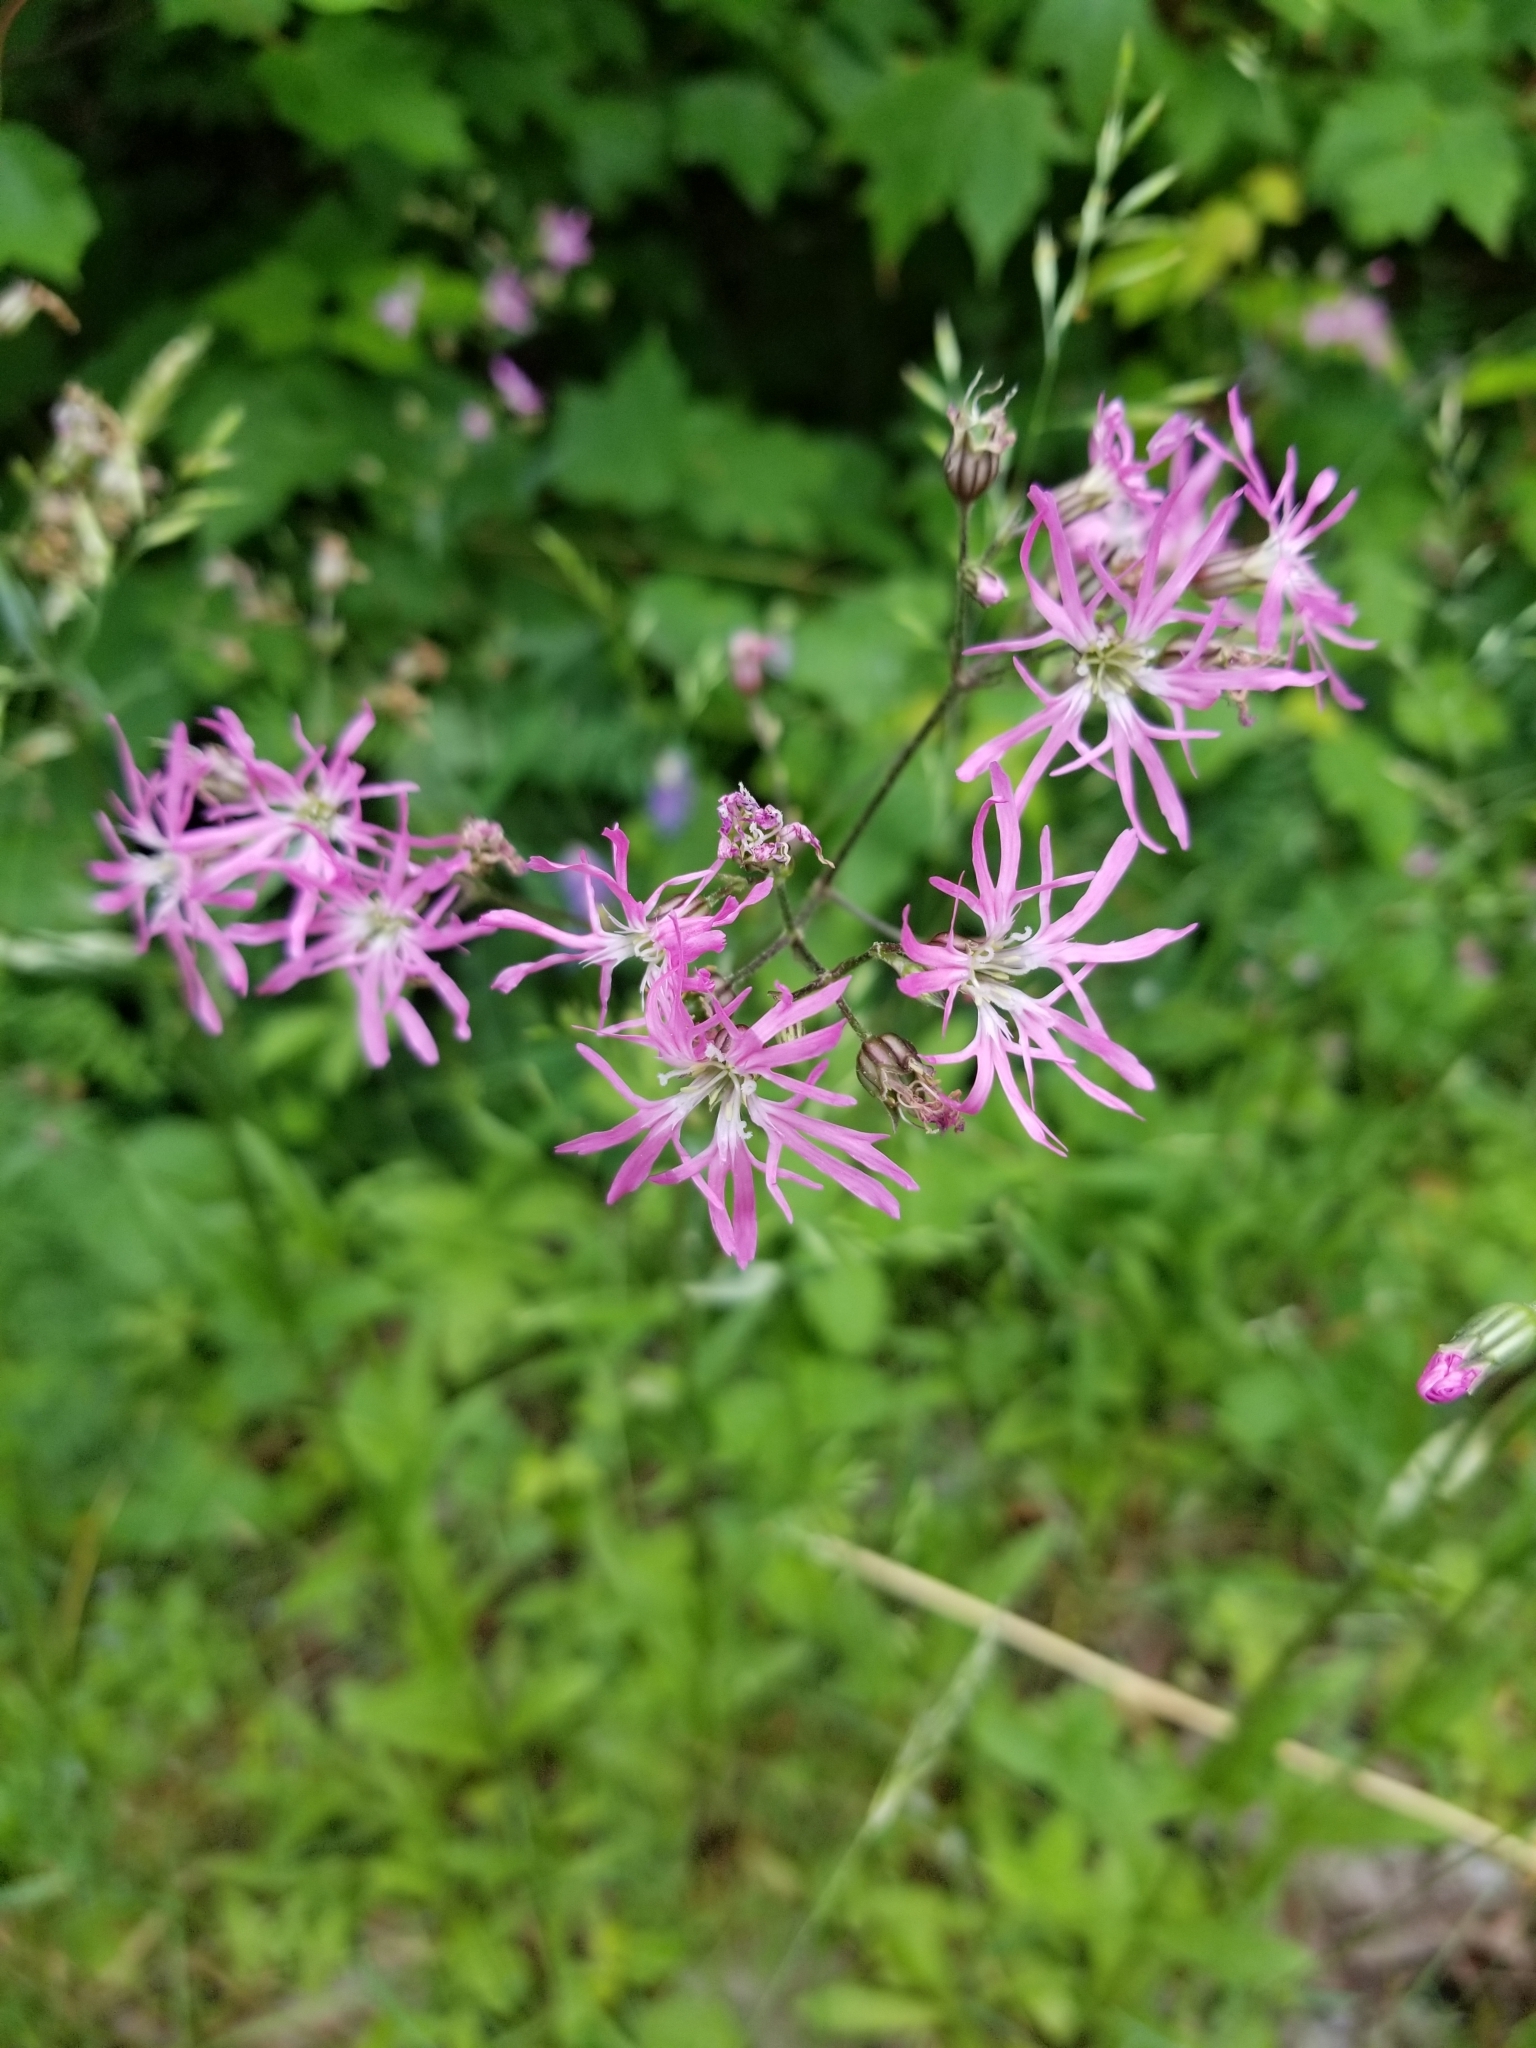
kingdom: Plantae
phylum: Tracheophyta
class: Magnoliopsida
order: Caryophyllales
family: Caryophyllaceae
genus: Silene
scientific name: Silene flos-cuculi
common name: Ragged-robin
